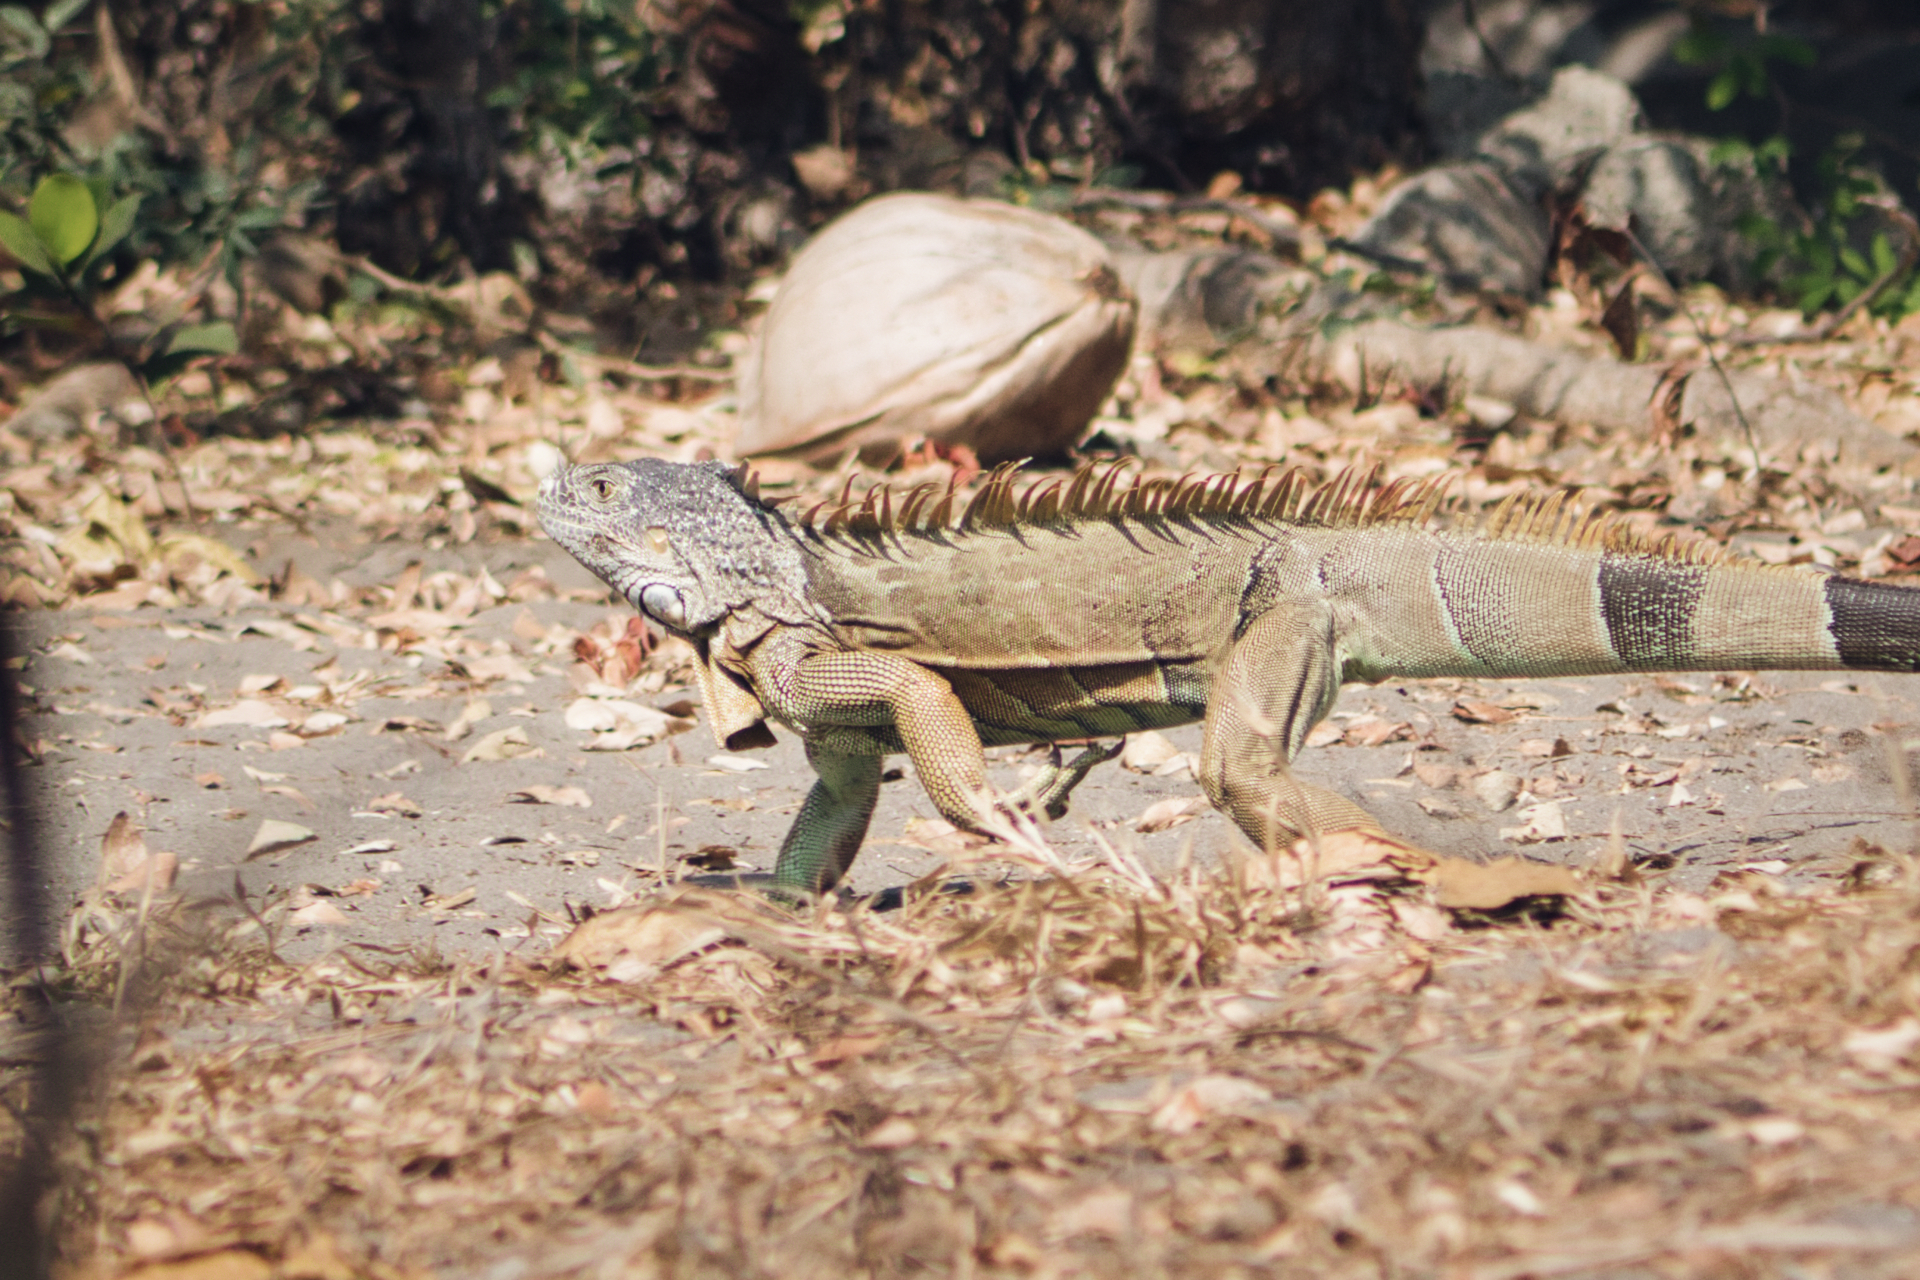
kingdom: Animalia
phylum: Chordata
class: Squamata
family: Iguanidae
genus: Iguana
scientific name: Iguana iguana
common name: Green iguana
